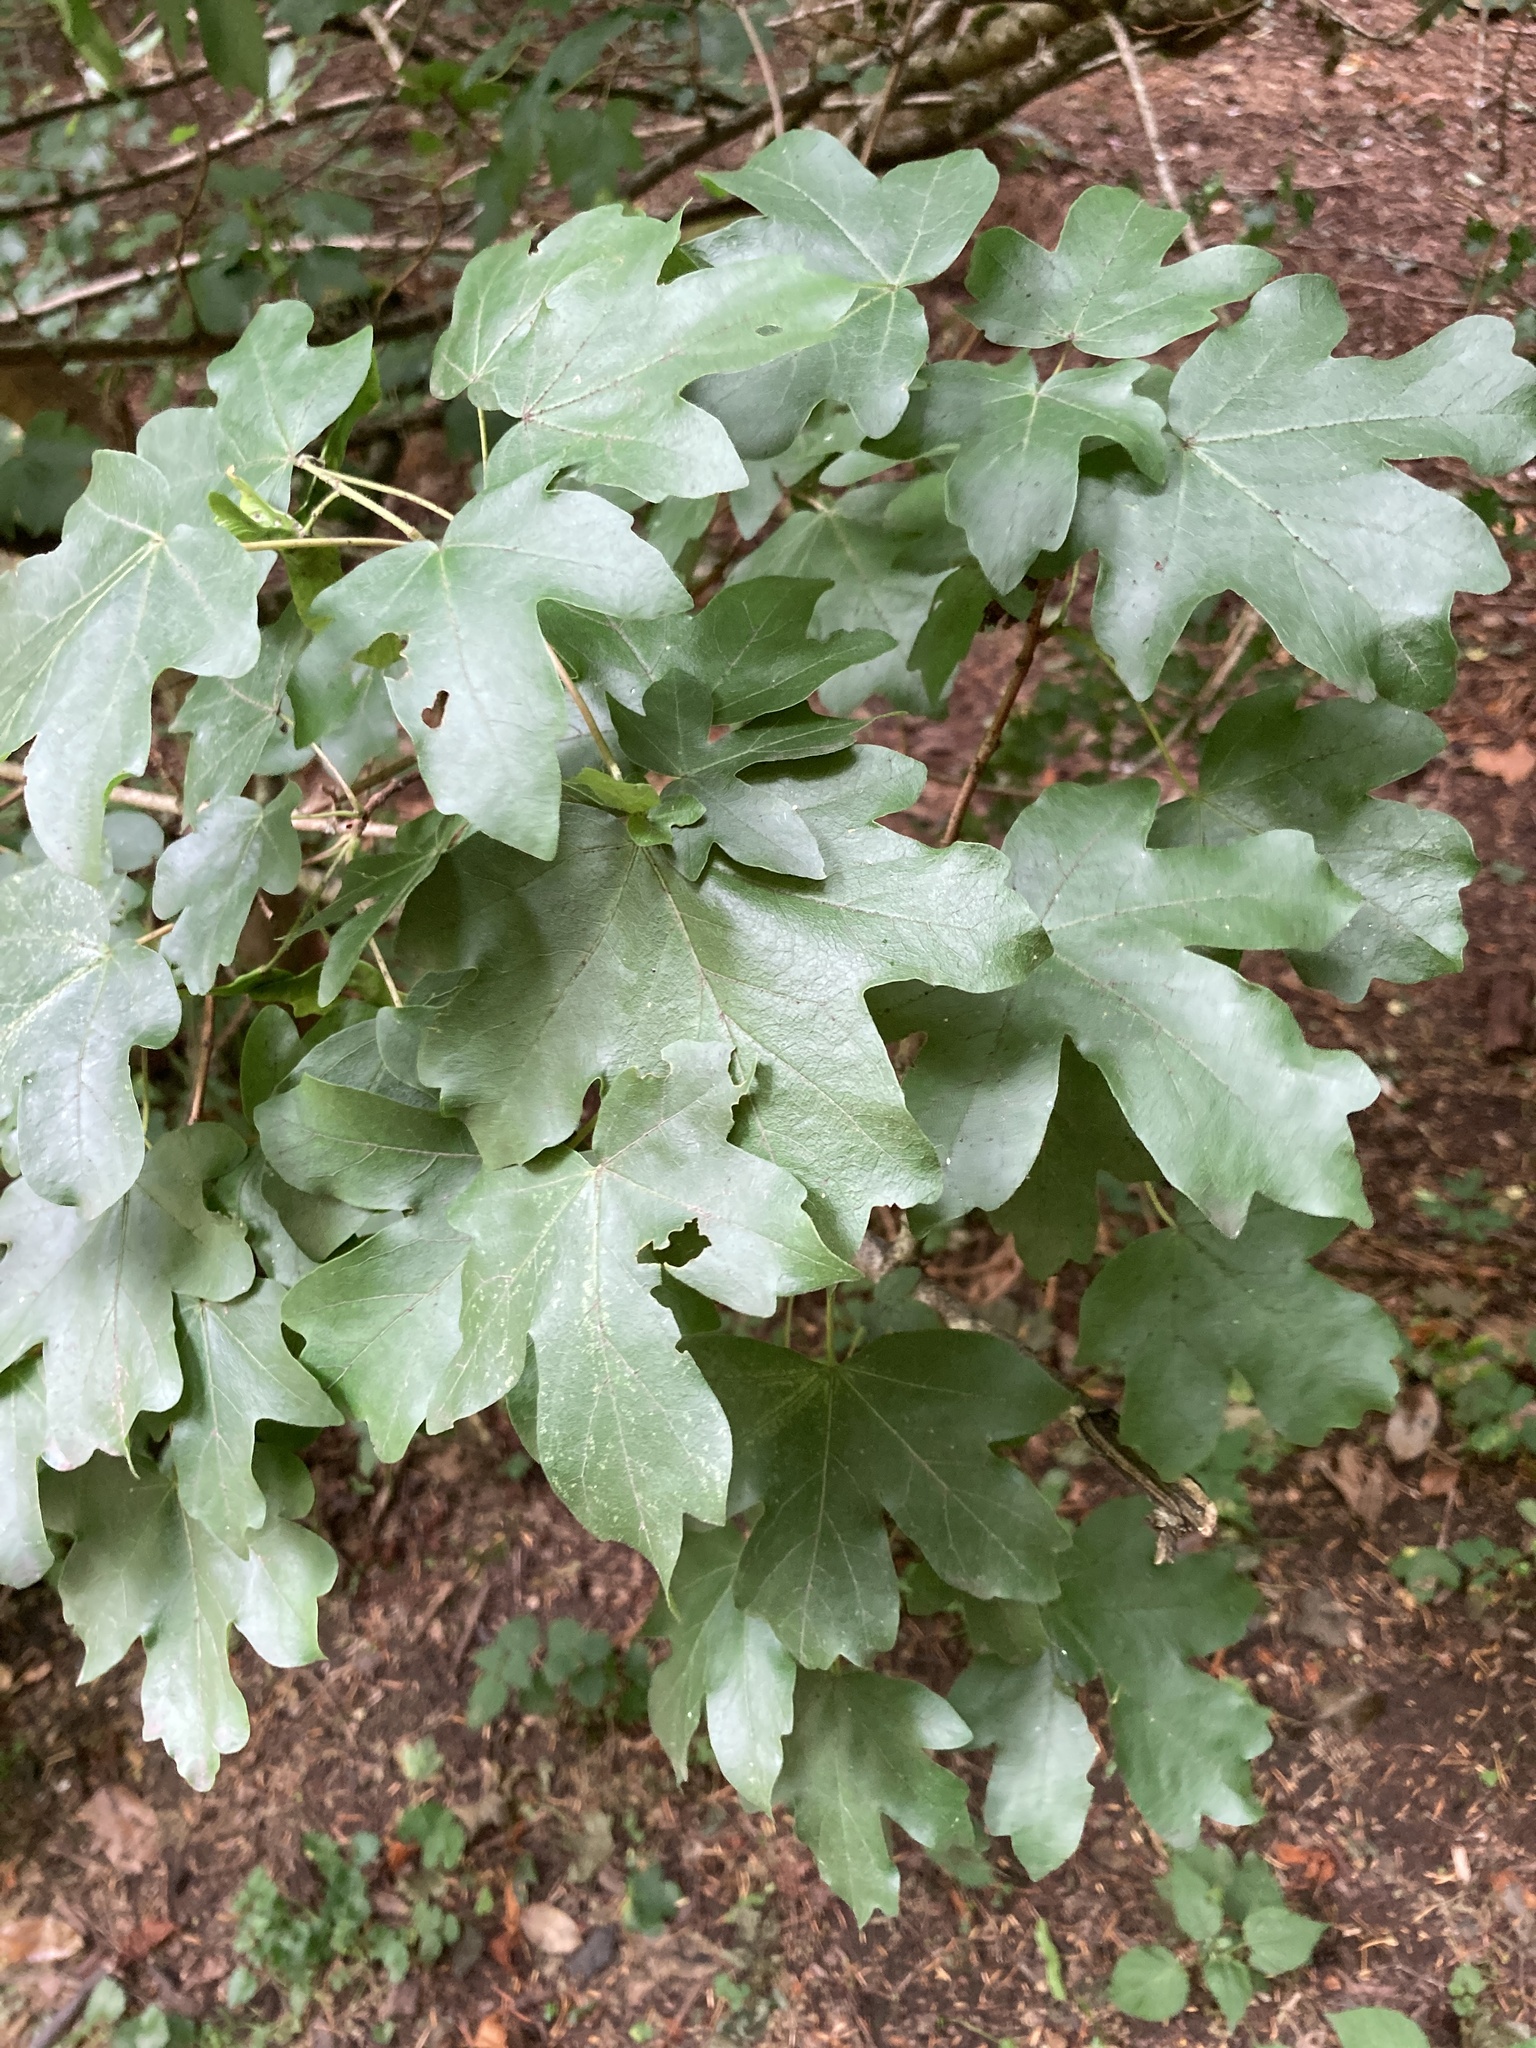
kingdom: Plantae
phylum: Tracheophyta
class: Magnoliopsida
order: Sapindales
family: Sapindaceae
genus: Acer
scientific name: Acer campestre
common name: Field maple
